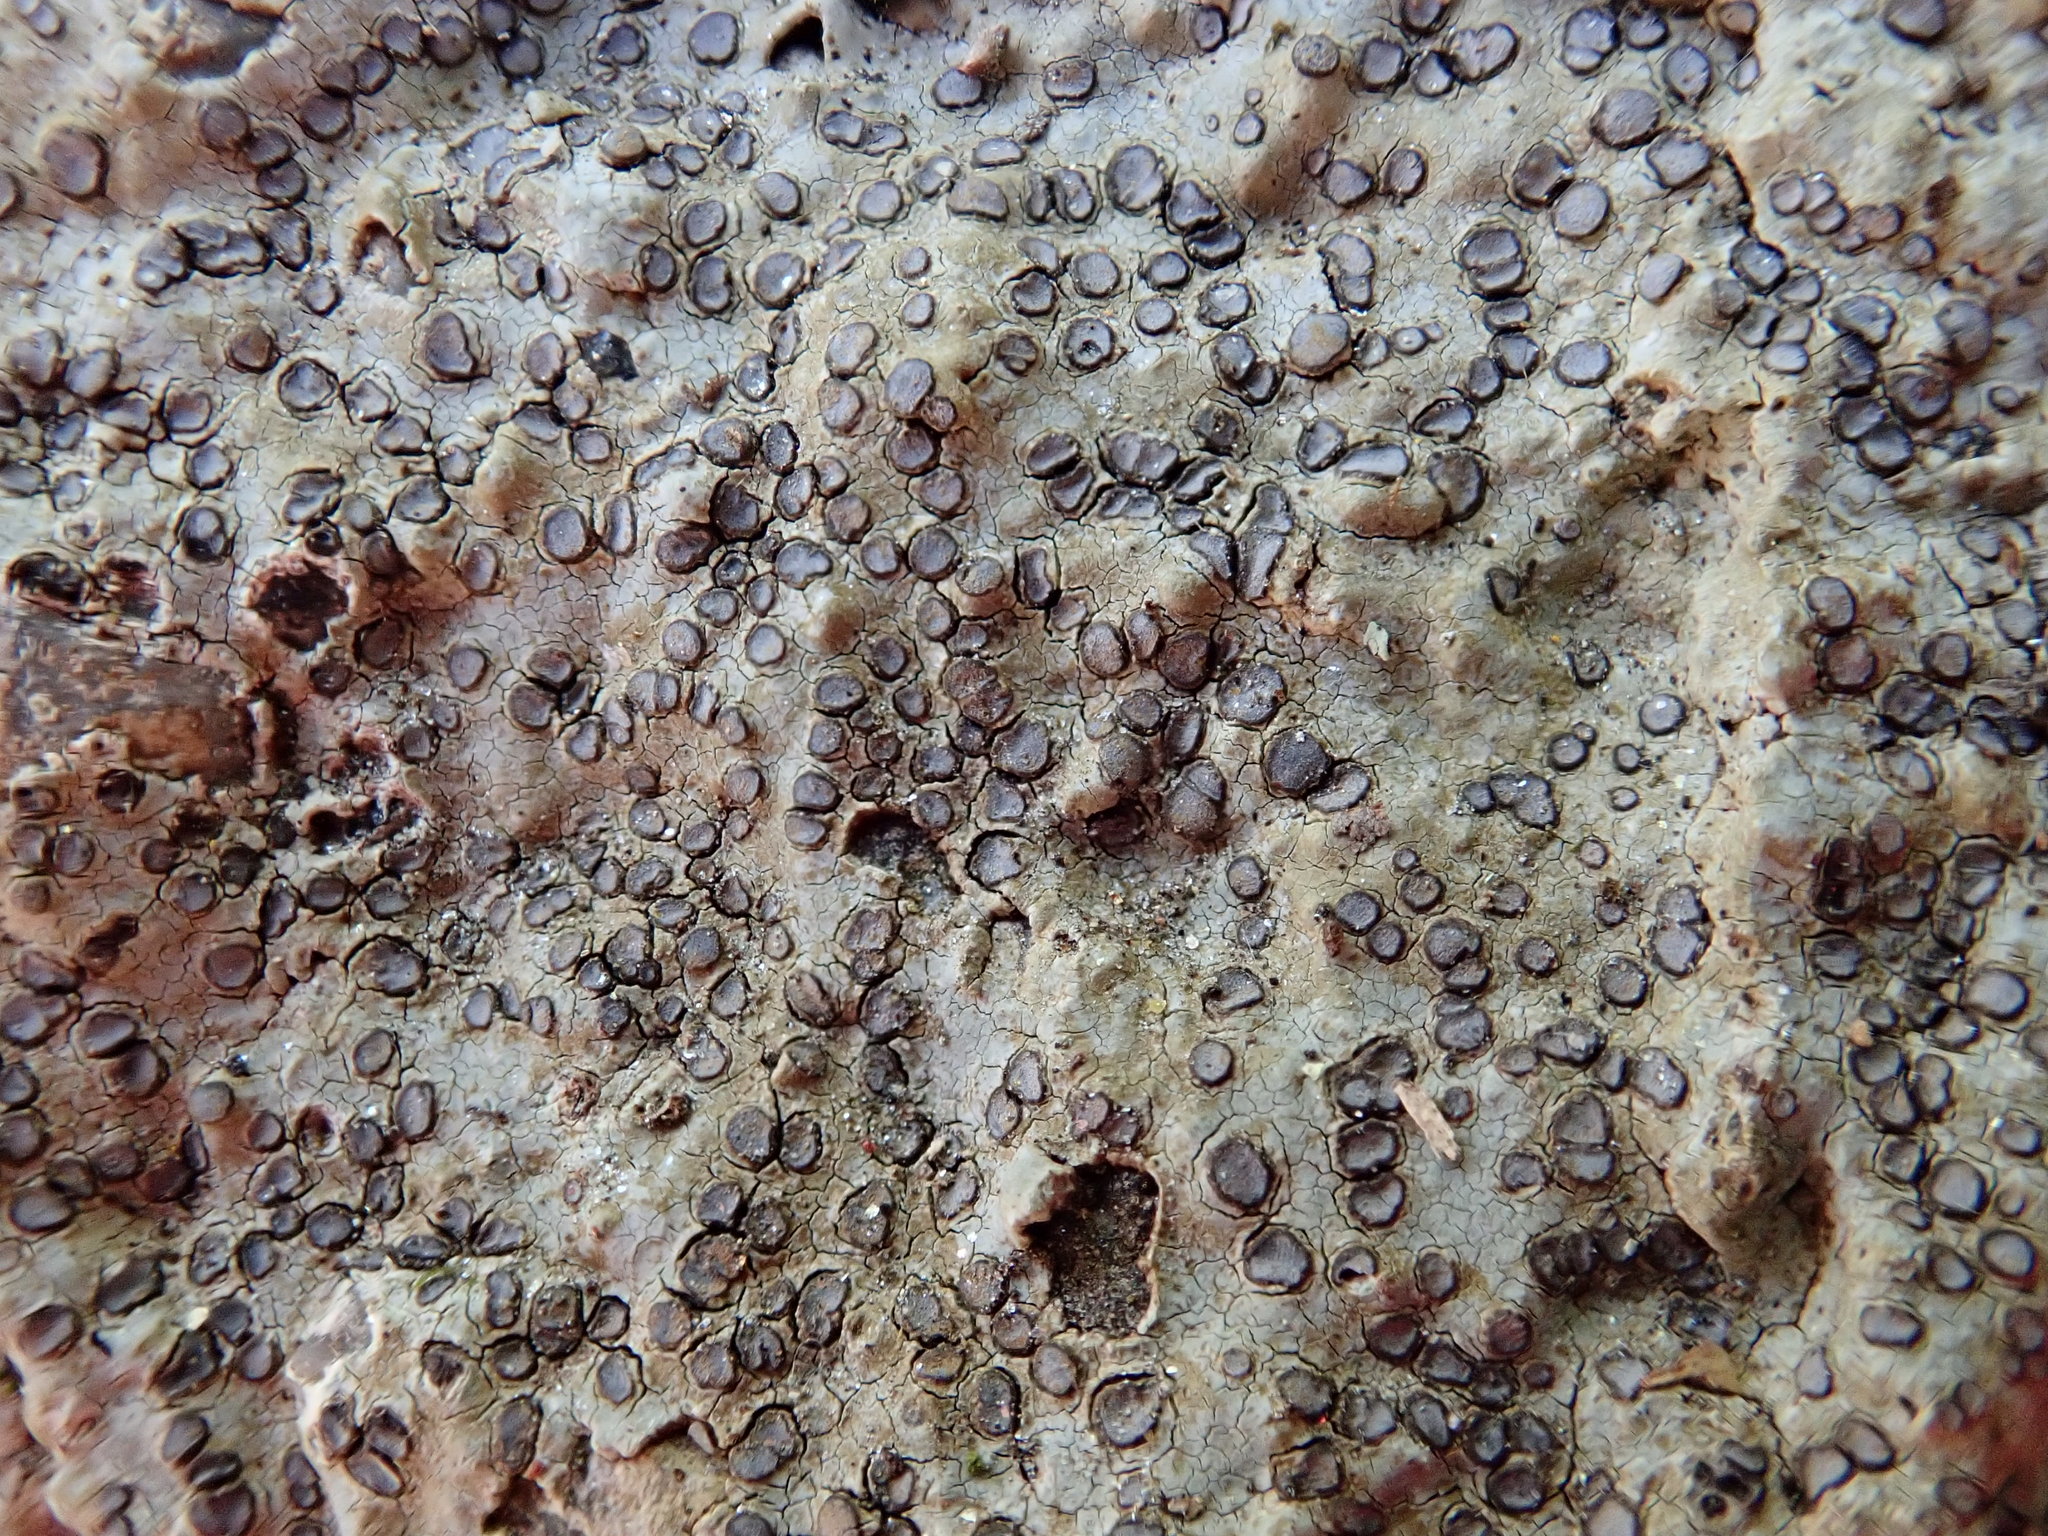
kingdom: Fungi
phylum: Ascomycota
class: Lecanoromycetes
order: Lecideales
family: Lecideaceae
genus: Porpidia
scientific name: Porpidia albocaerulescens
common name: Smokey-eyed boulder lichen
